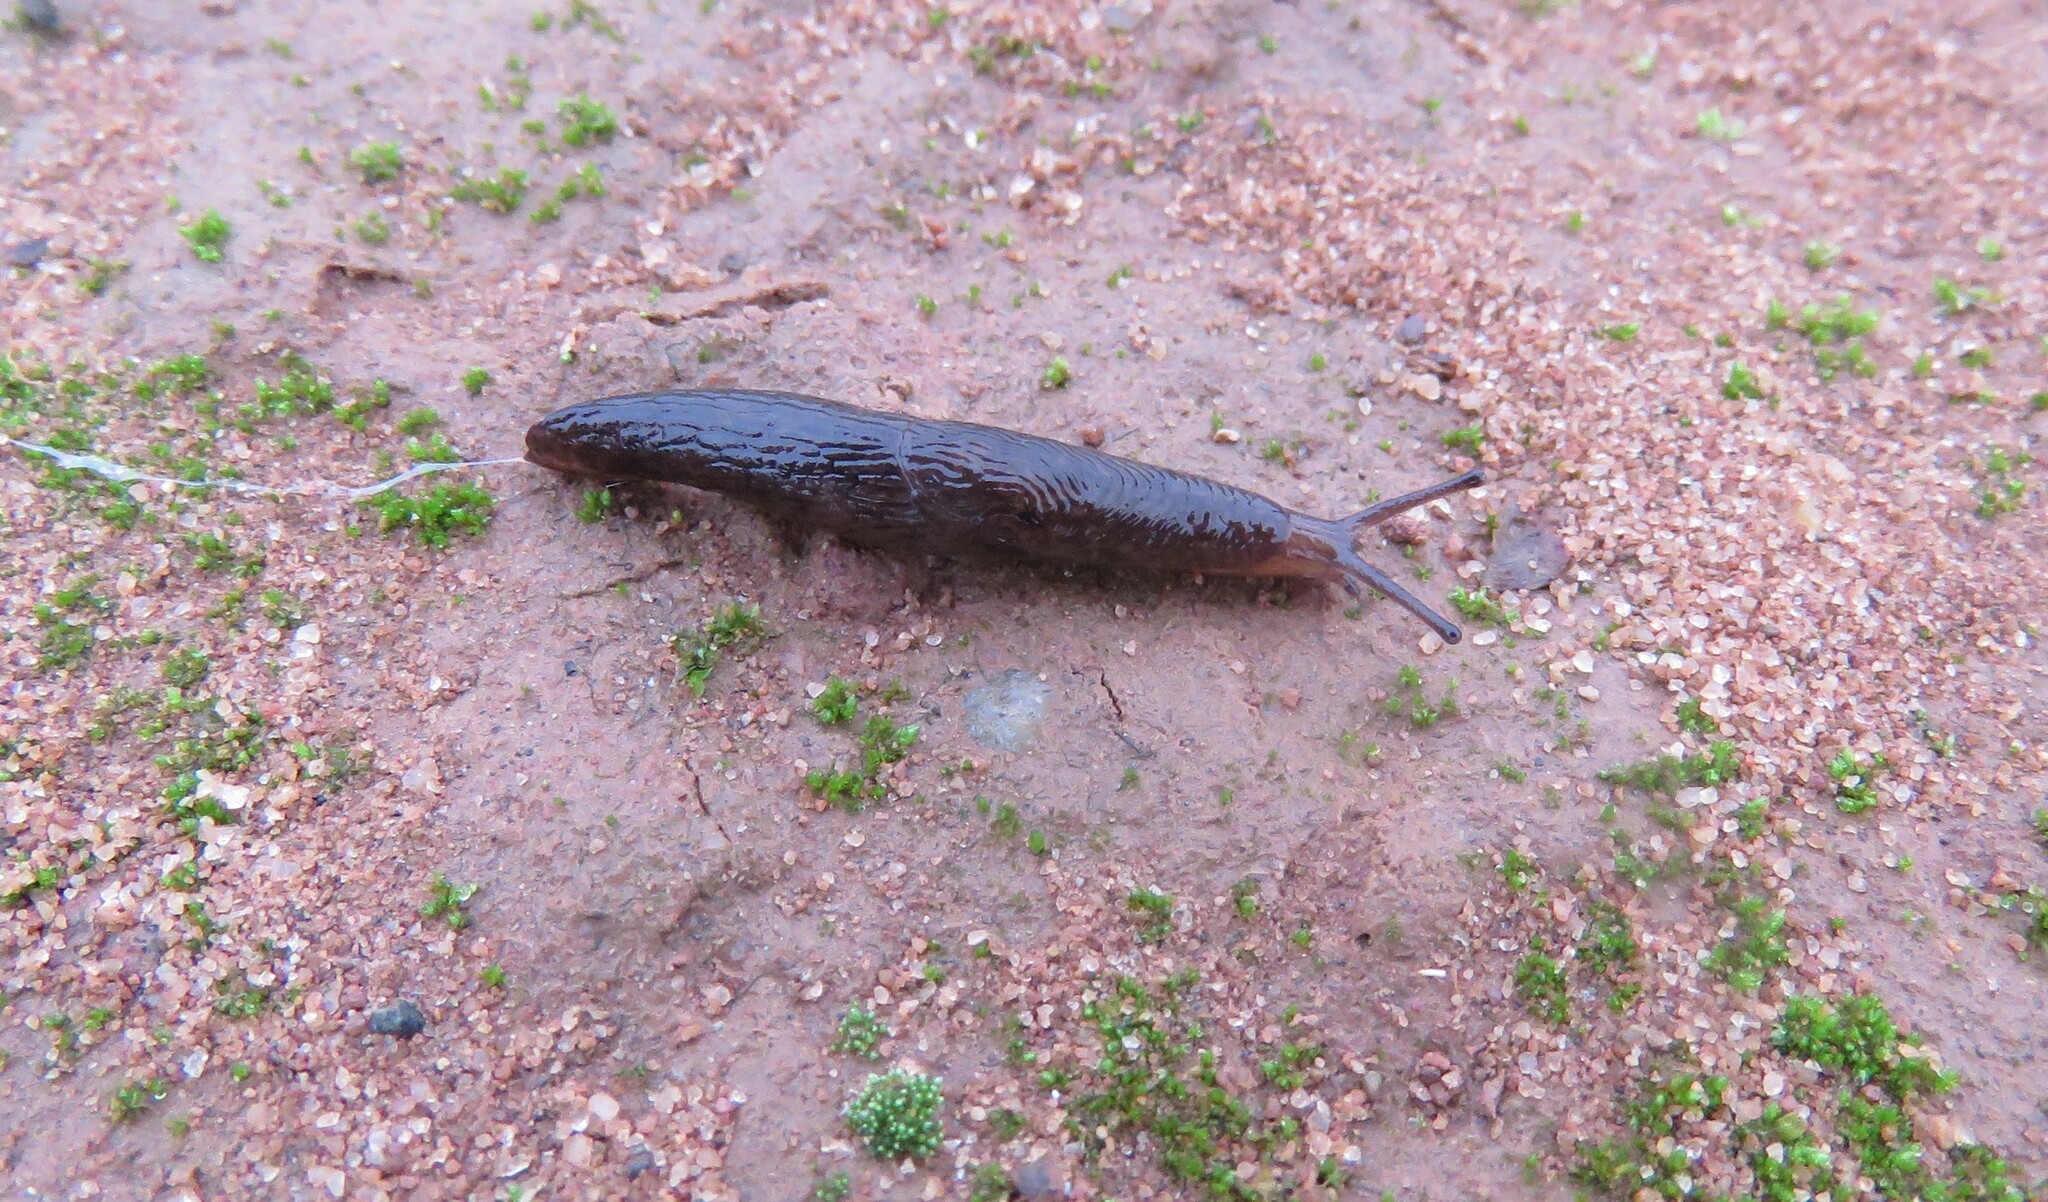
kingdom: Animalia
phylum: Mollusca
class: Gastropoda
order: Stylommatophora
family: Agriolimacidae
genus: Deroceras
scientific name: Deroceras laeve
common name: Marsh slug
